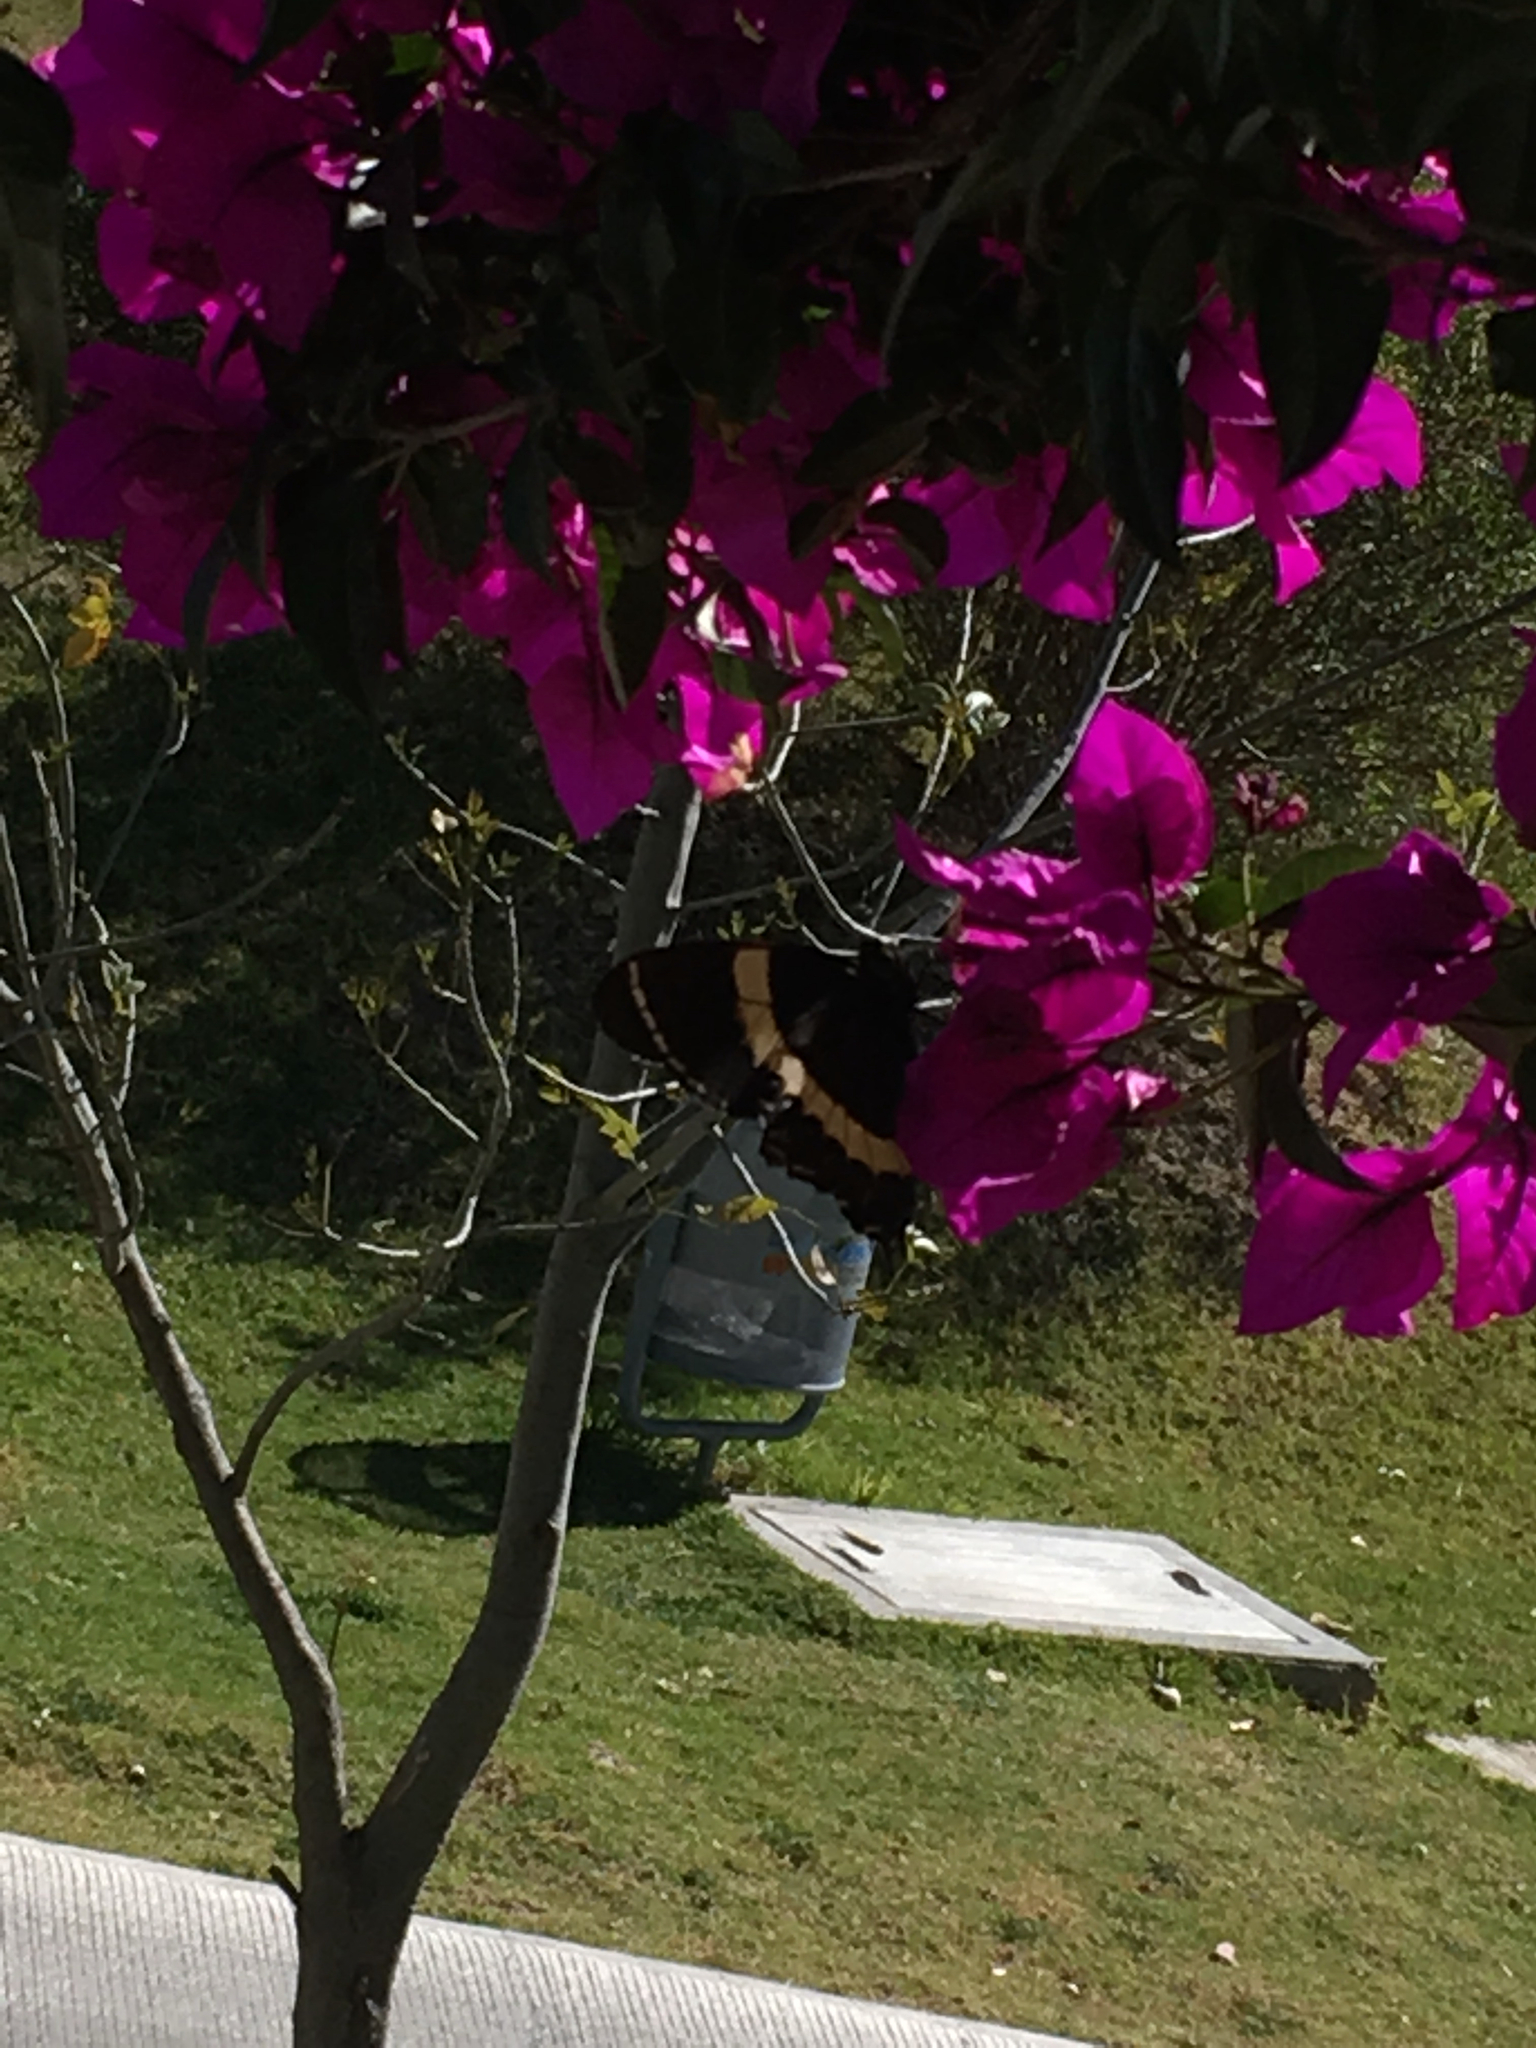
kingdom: Animalia
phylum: Arthropoda
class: Insecta
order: Lepidoptera
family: Papilionidae
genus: Papilio
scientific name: Papilio garamas
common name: Magnificent swallowtail
